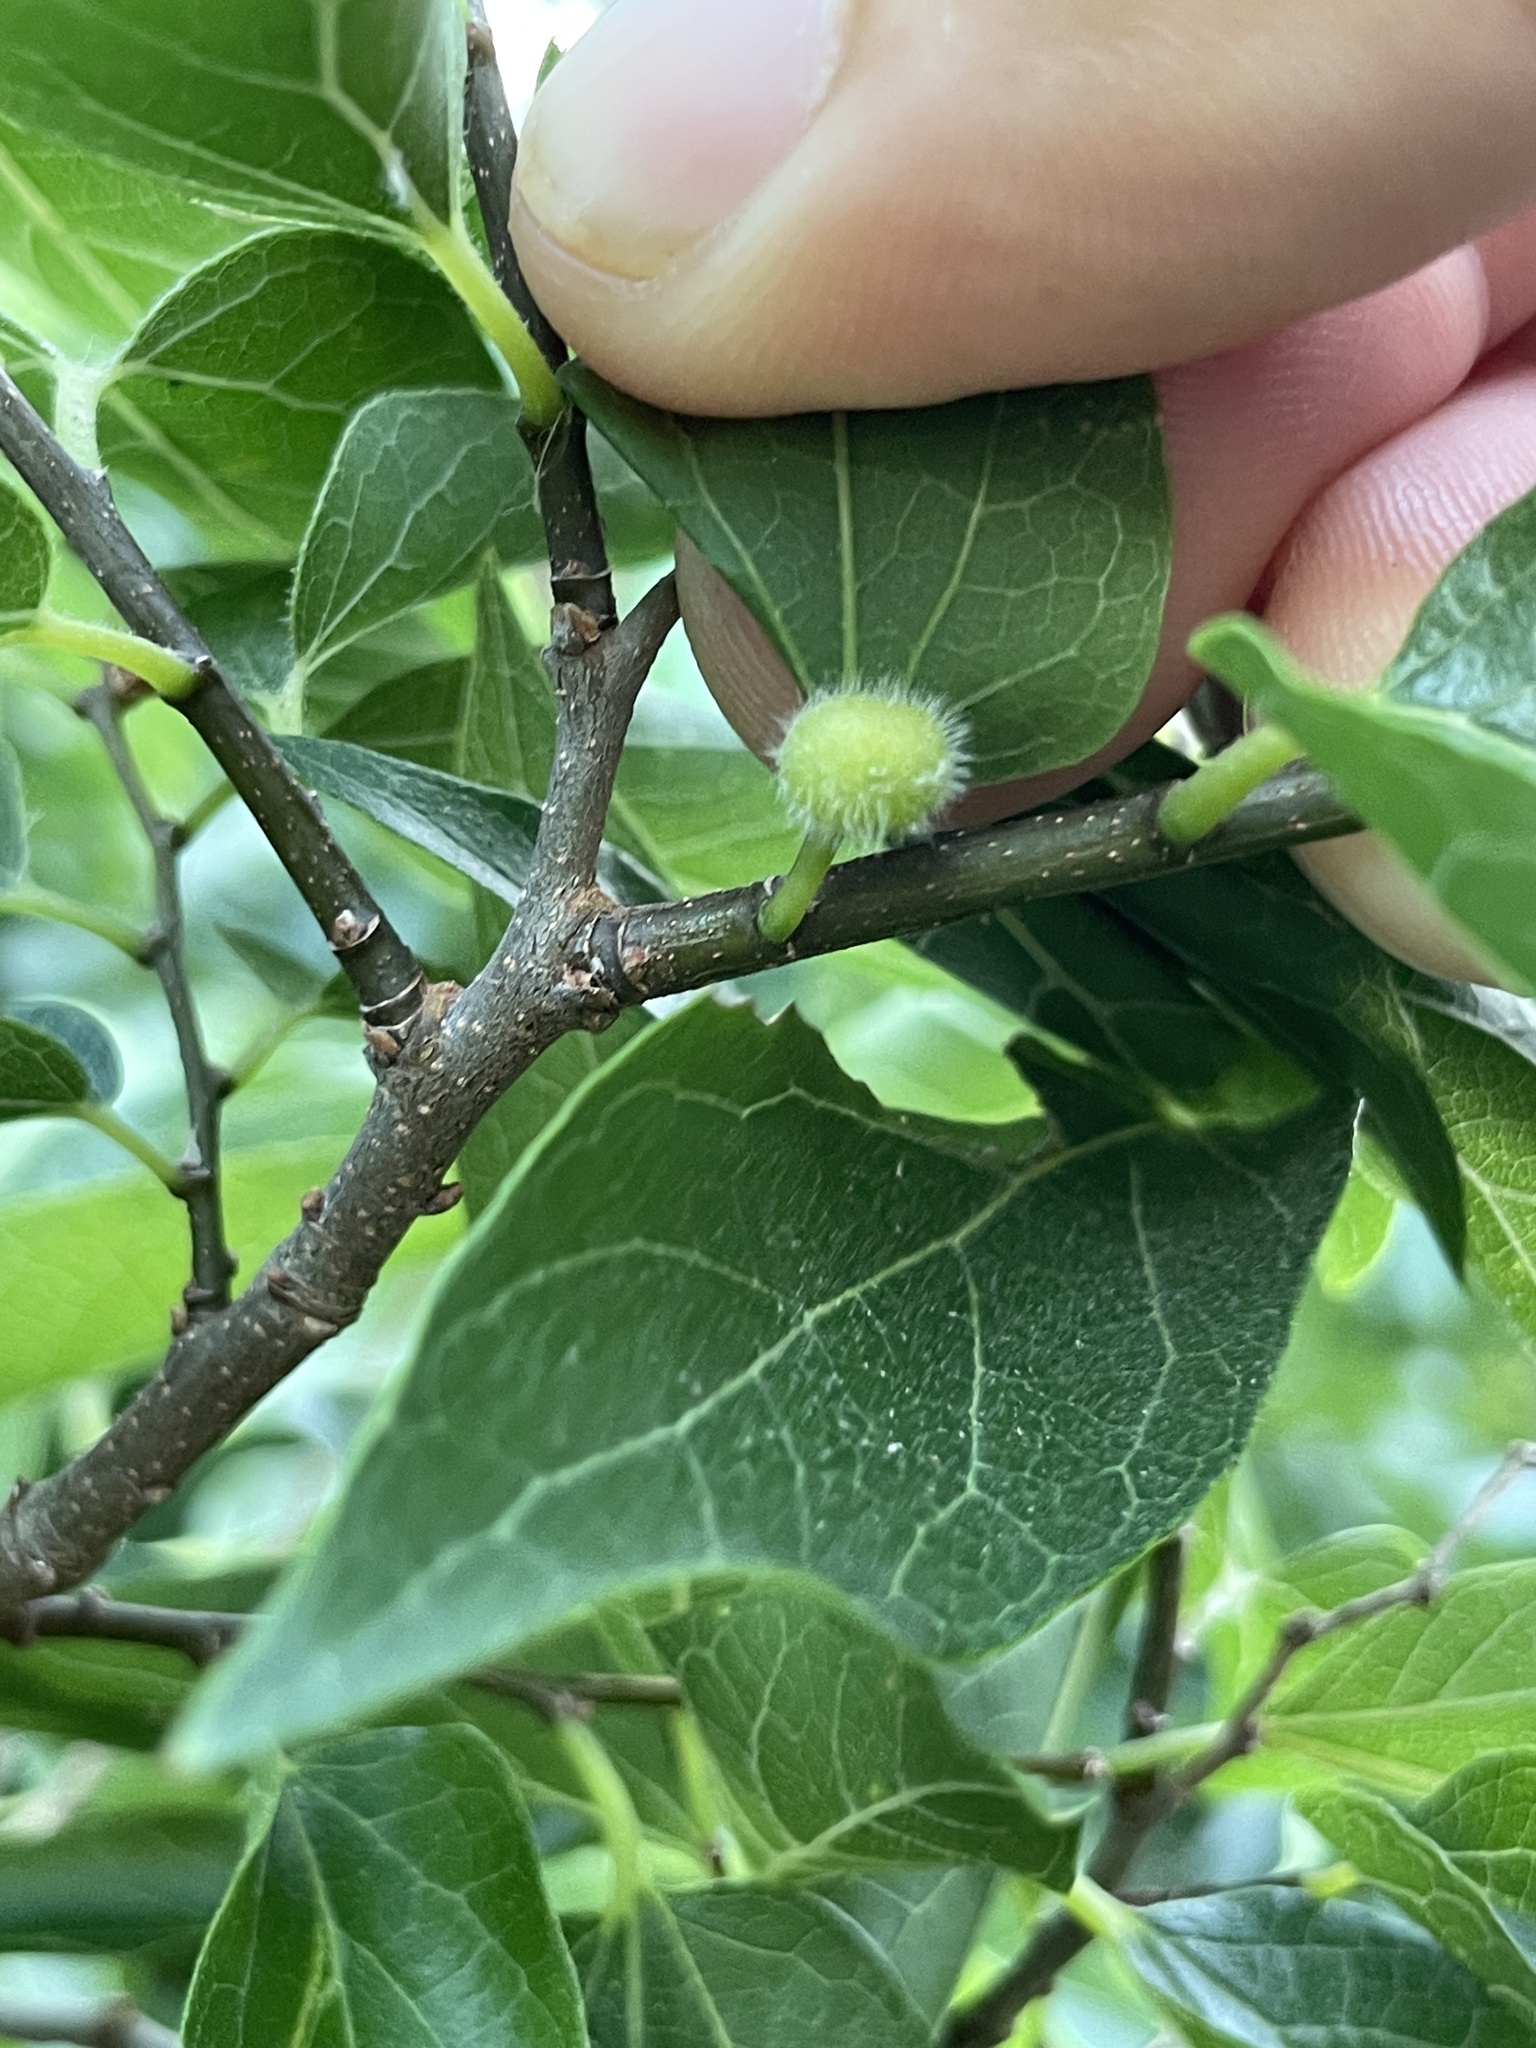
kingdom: Animalia
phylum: Arthropoda
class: Insecta
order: Diptera
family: Cecidomyiidae
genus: Celticecis
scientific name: Celticecis pubescens
